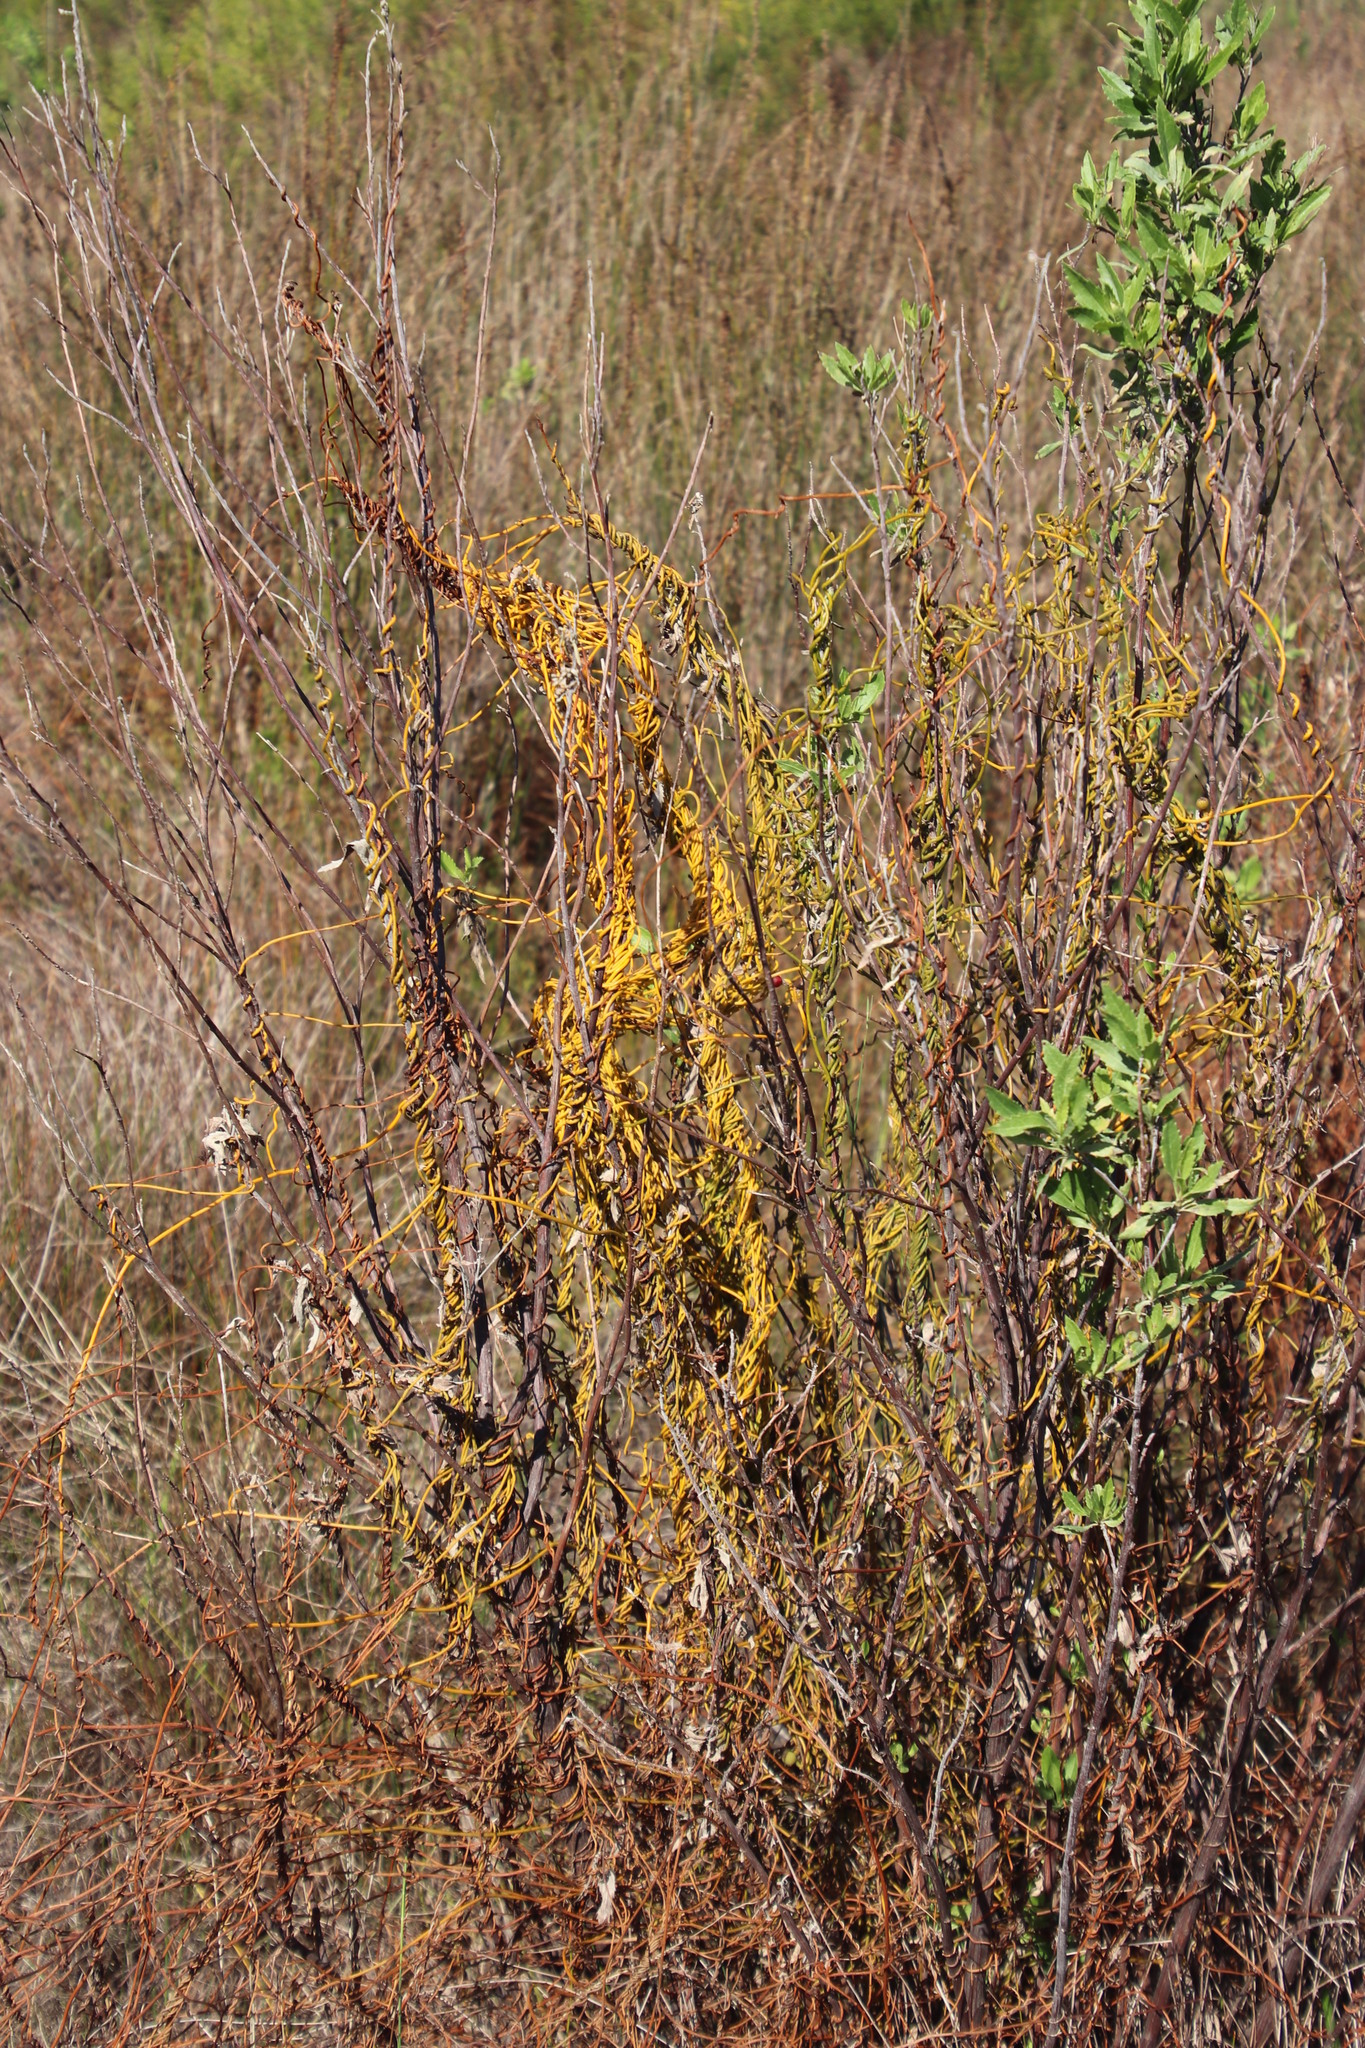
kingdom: Plantae
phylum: Tracheophyta
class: Magnoliopsida
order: Laurales
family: Lauraceae
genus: Cassytha
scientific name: Cassytha ciliolata
